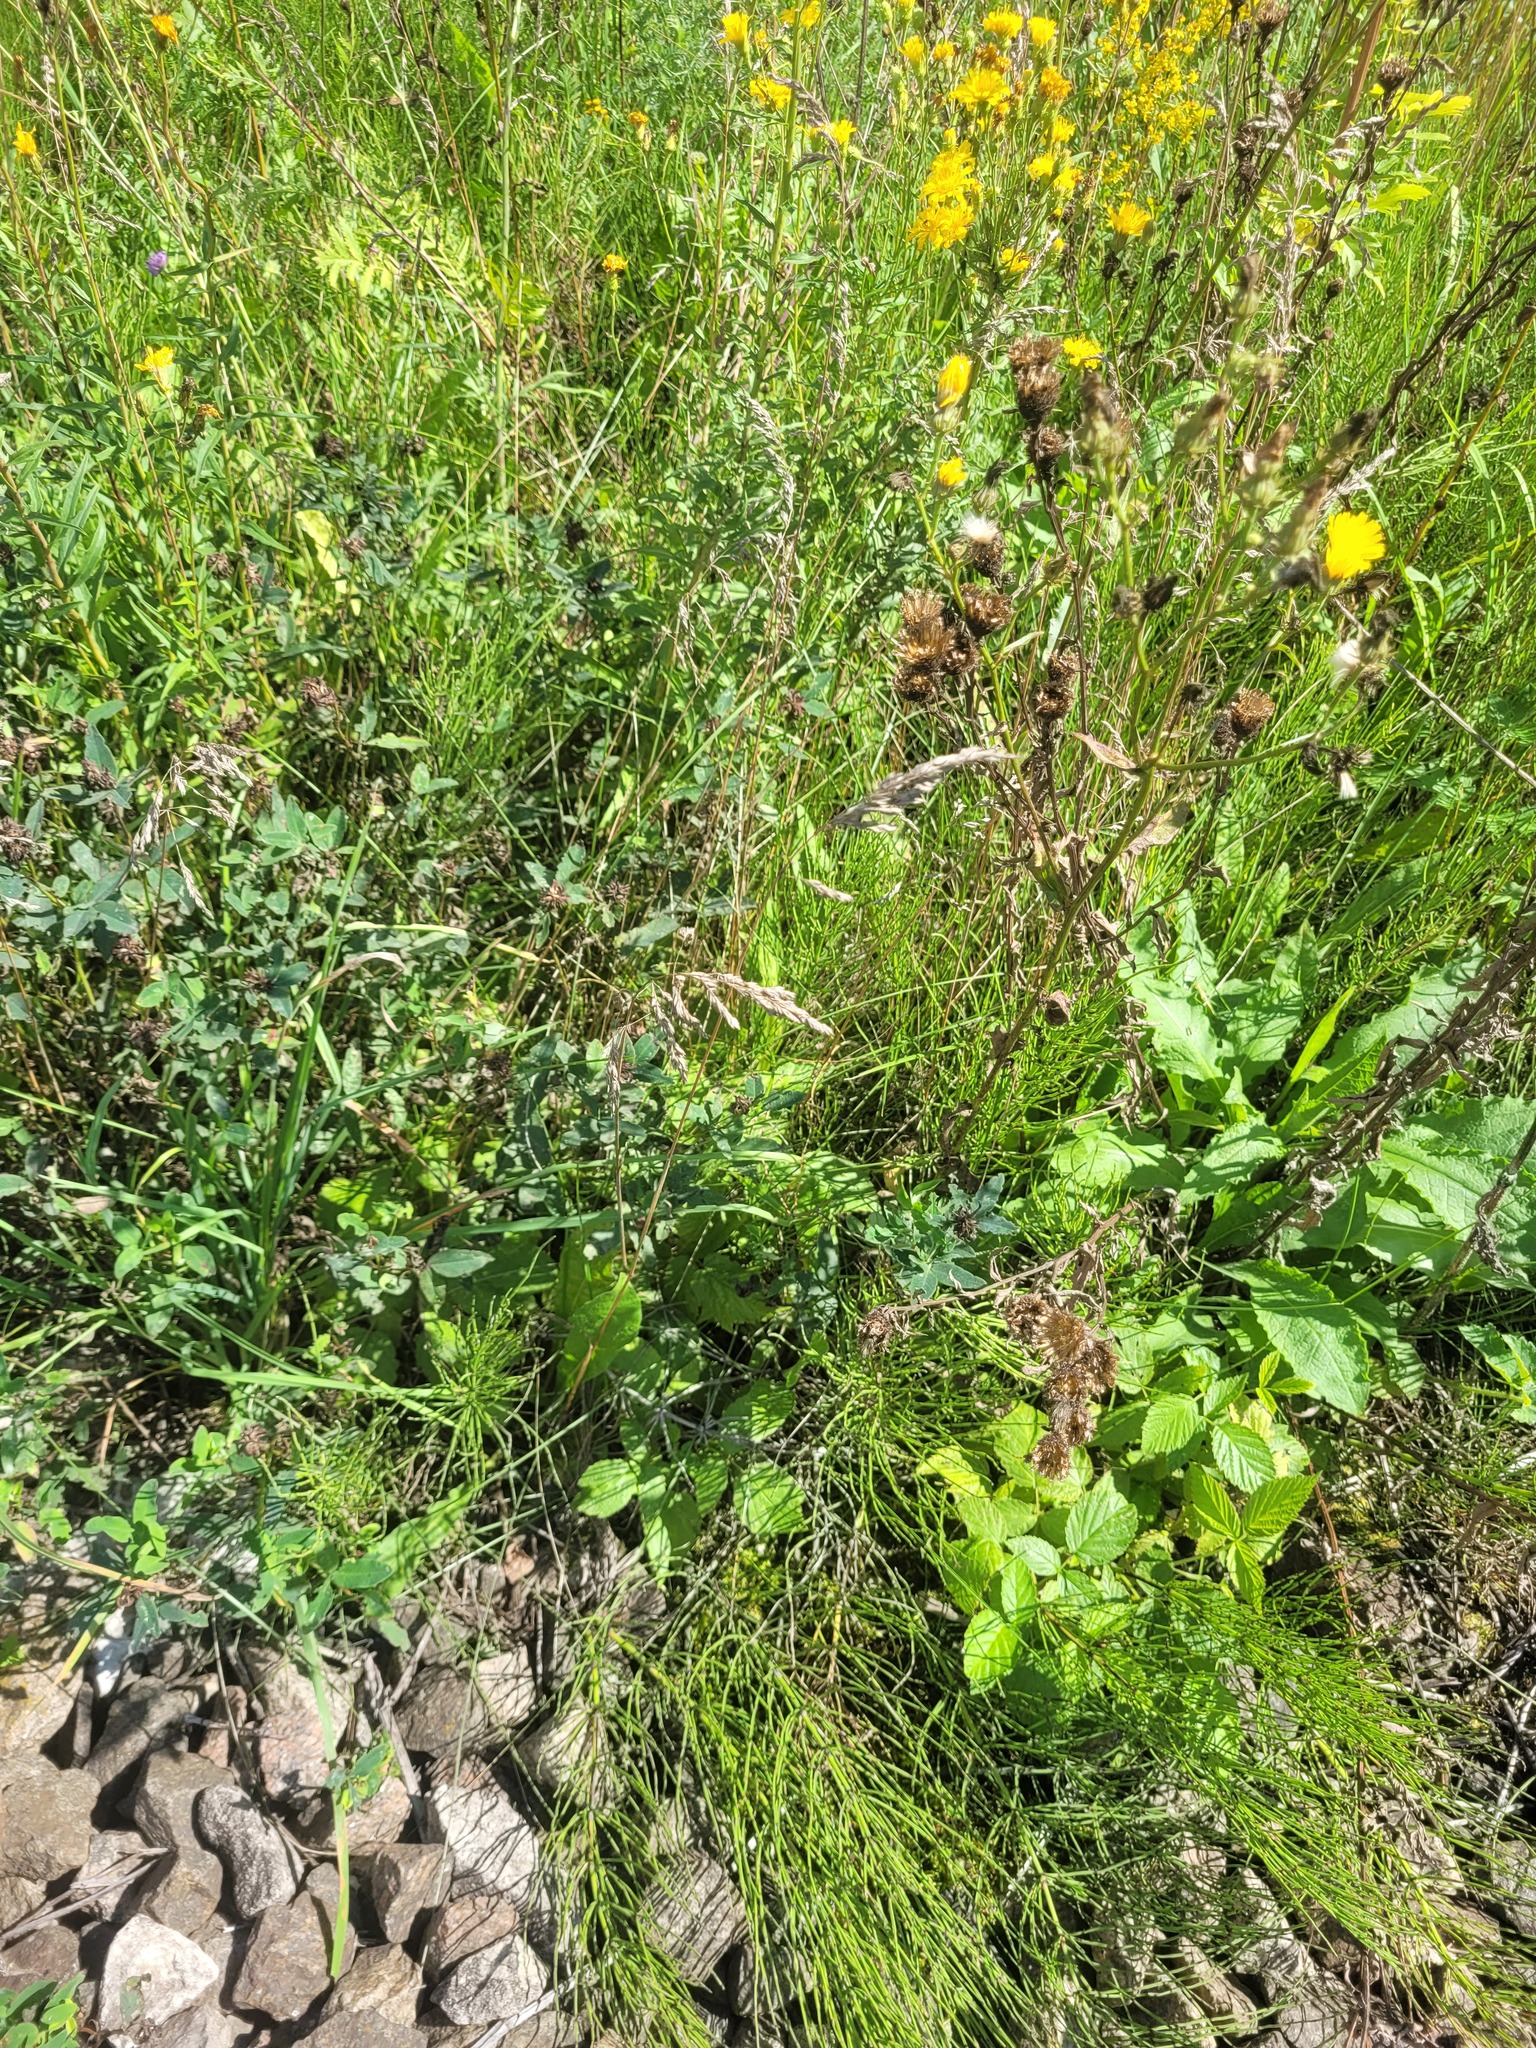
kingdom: Plantae
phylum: Tracheophyta
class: Liliopsida
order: Poales
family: Poaceae
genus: Poa
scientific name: Poa angustifolia
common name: Narrow-leaved meadow-grass
